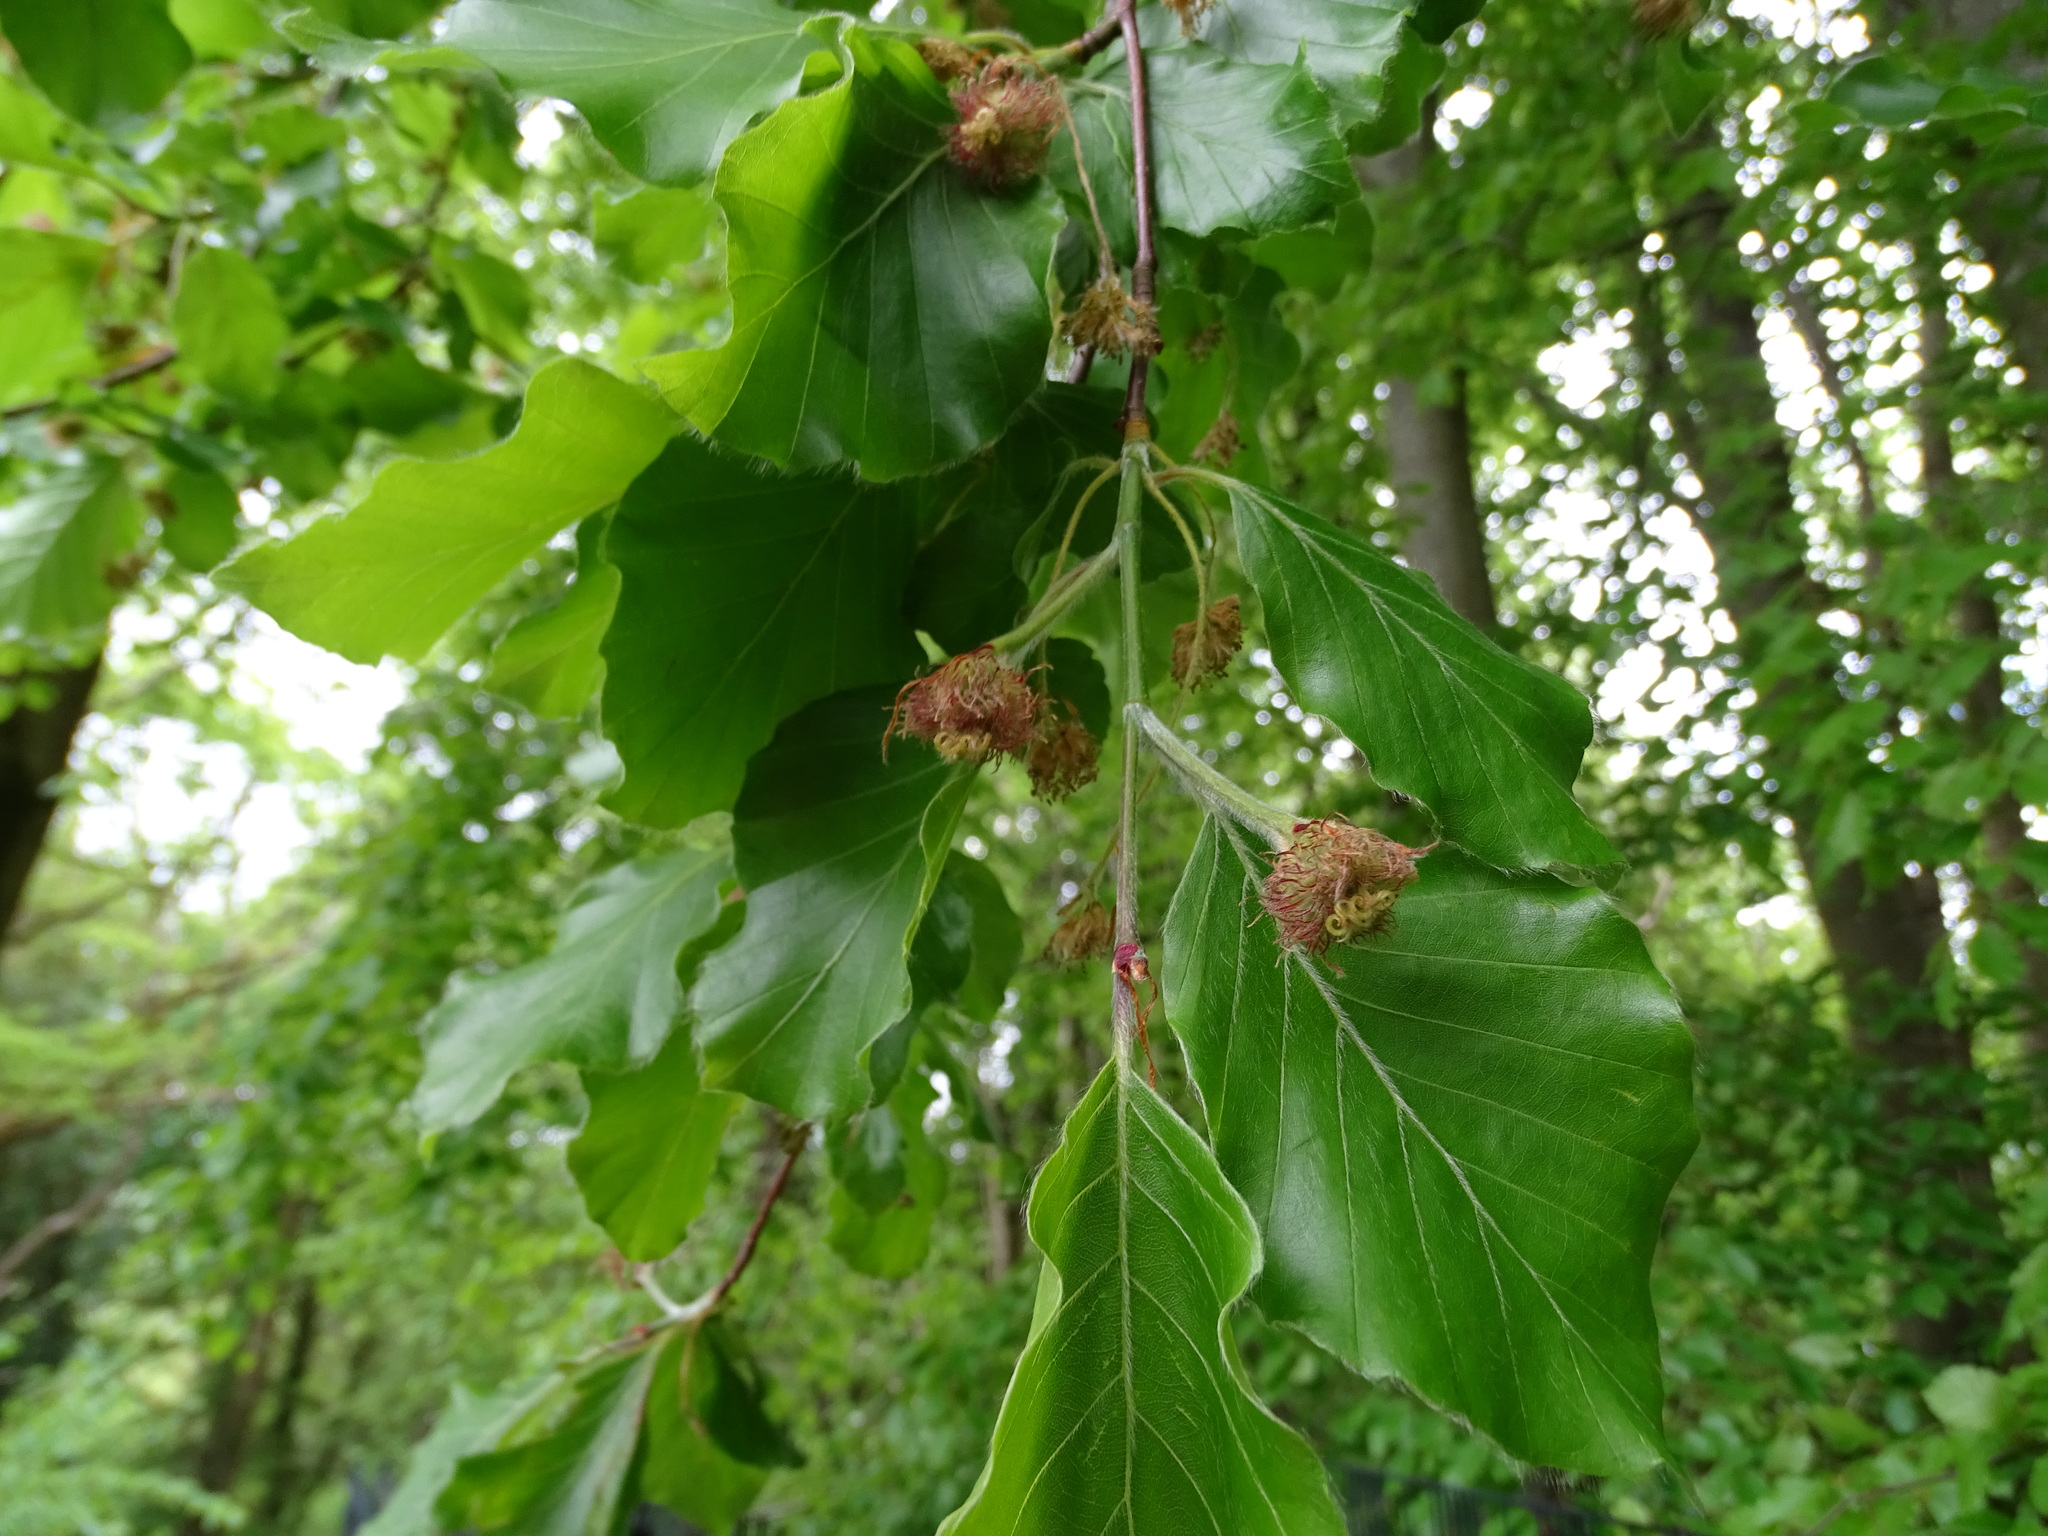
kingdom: Plantae
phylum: Tracheophyta
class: Magnoliopsida
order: Fagales
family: Fagaceae
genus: Fagus
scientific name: Fagus sylvatica
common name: Beech
